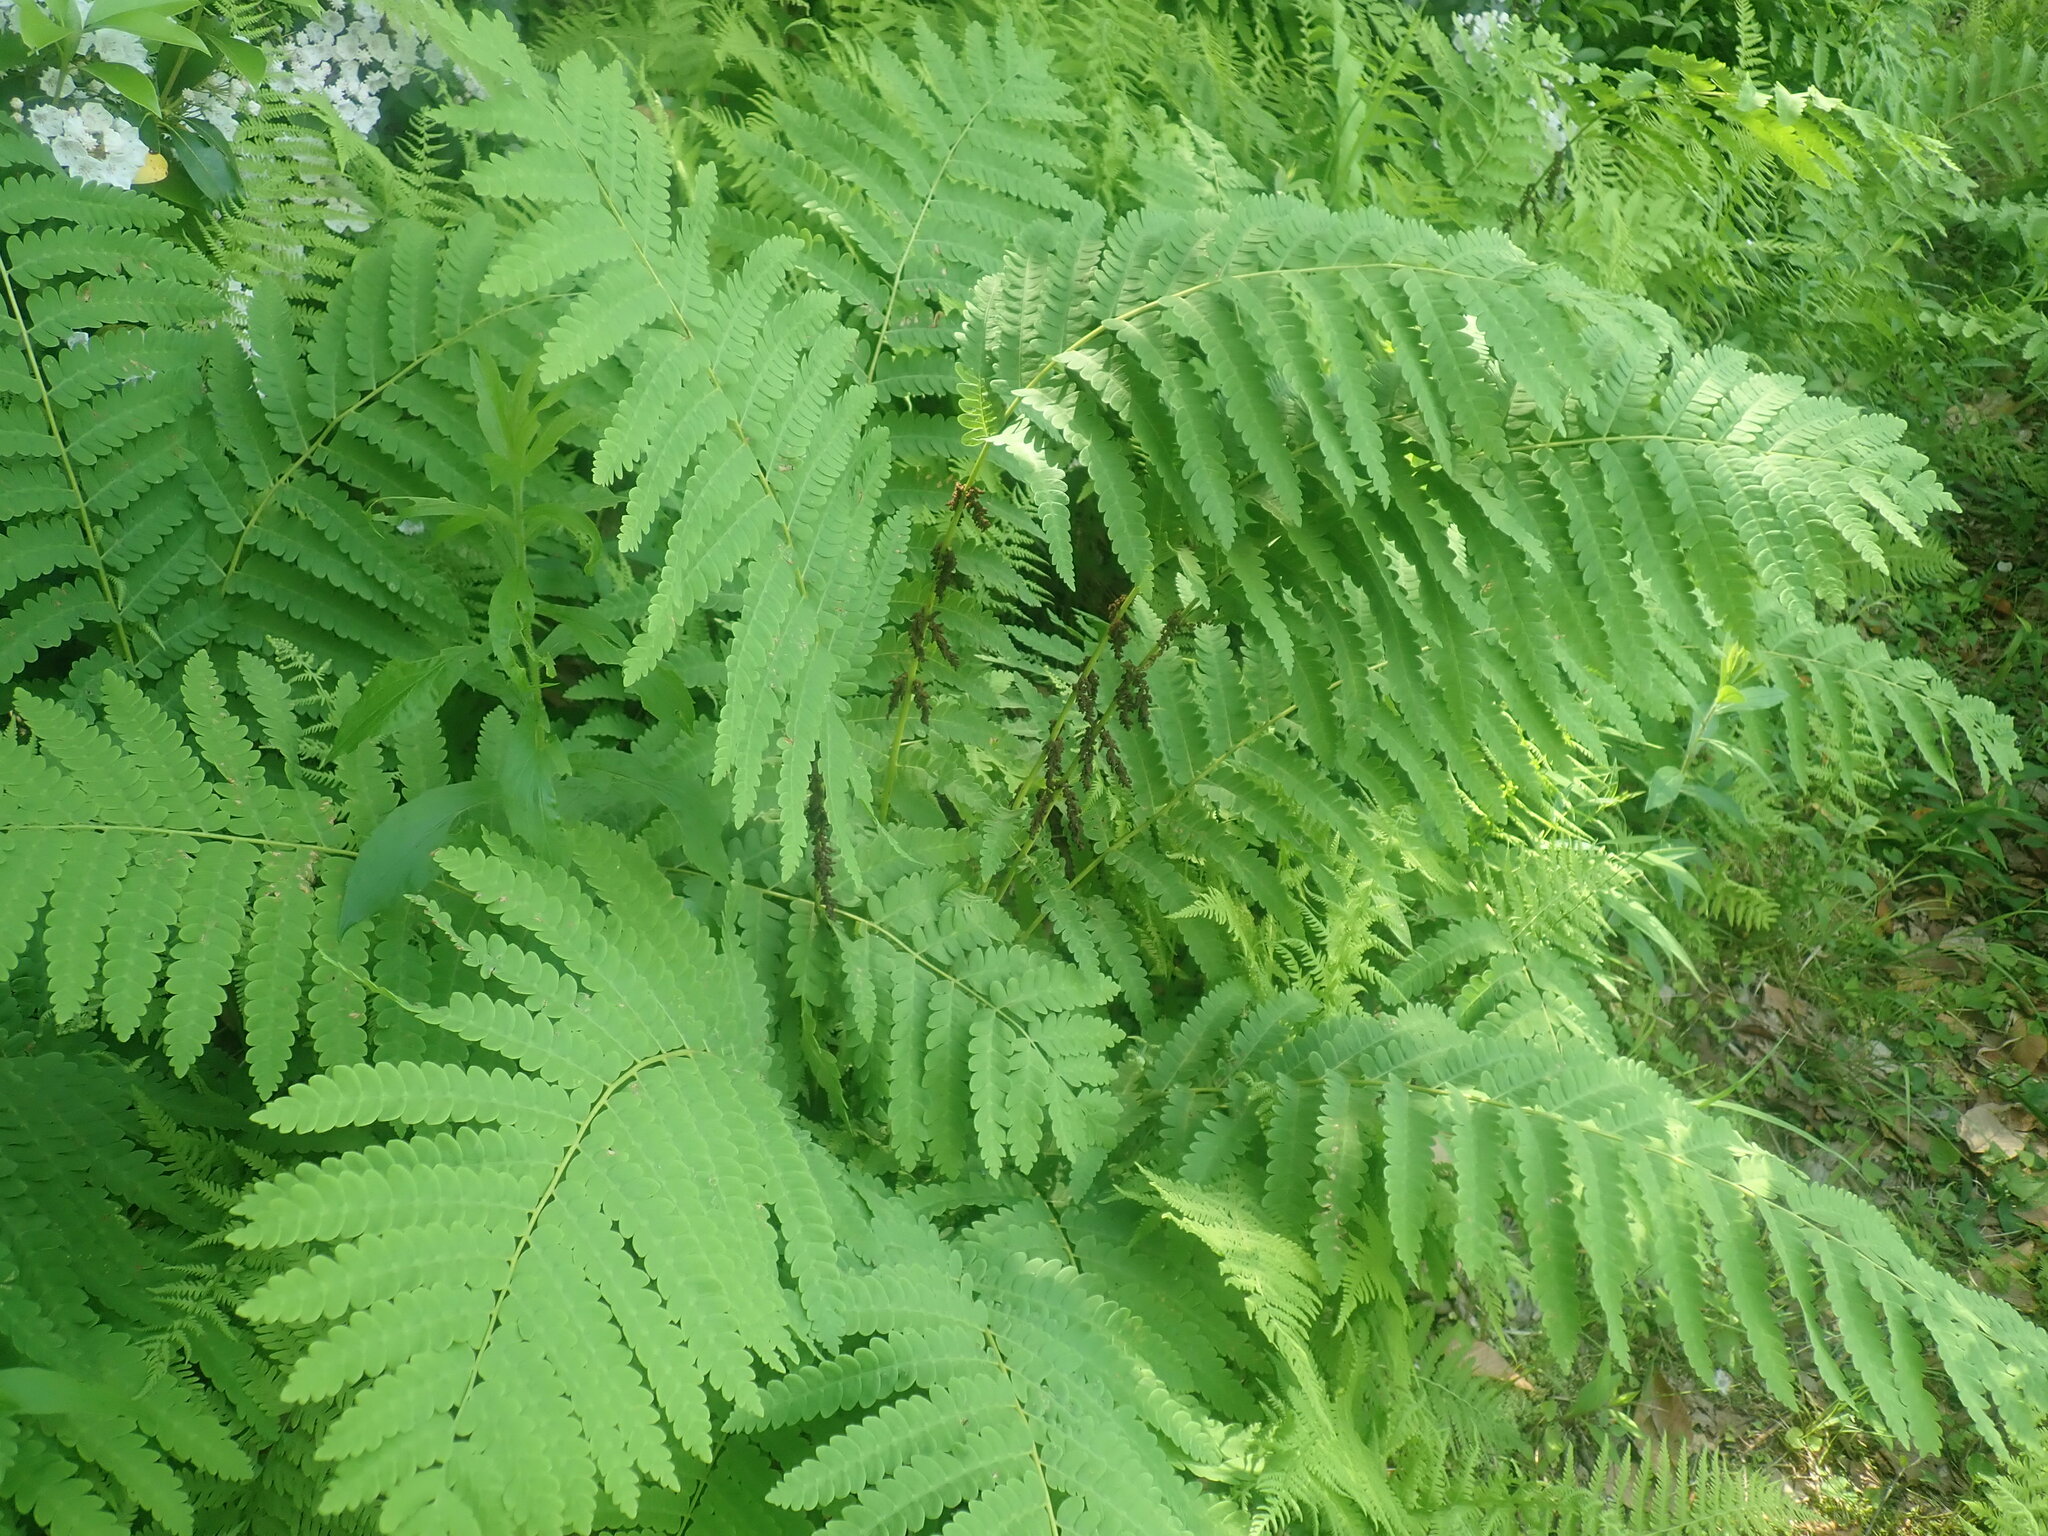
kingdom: Plantae
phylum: Tracheophyta
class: Polypodiopsida
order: Osmundales
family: Osmundaceae
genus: Claytosmunda
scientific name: Claytosmunda claytoniana
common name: Clayton's fern
